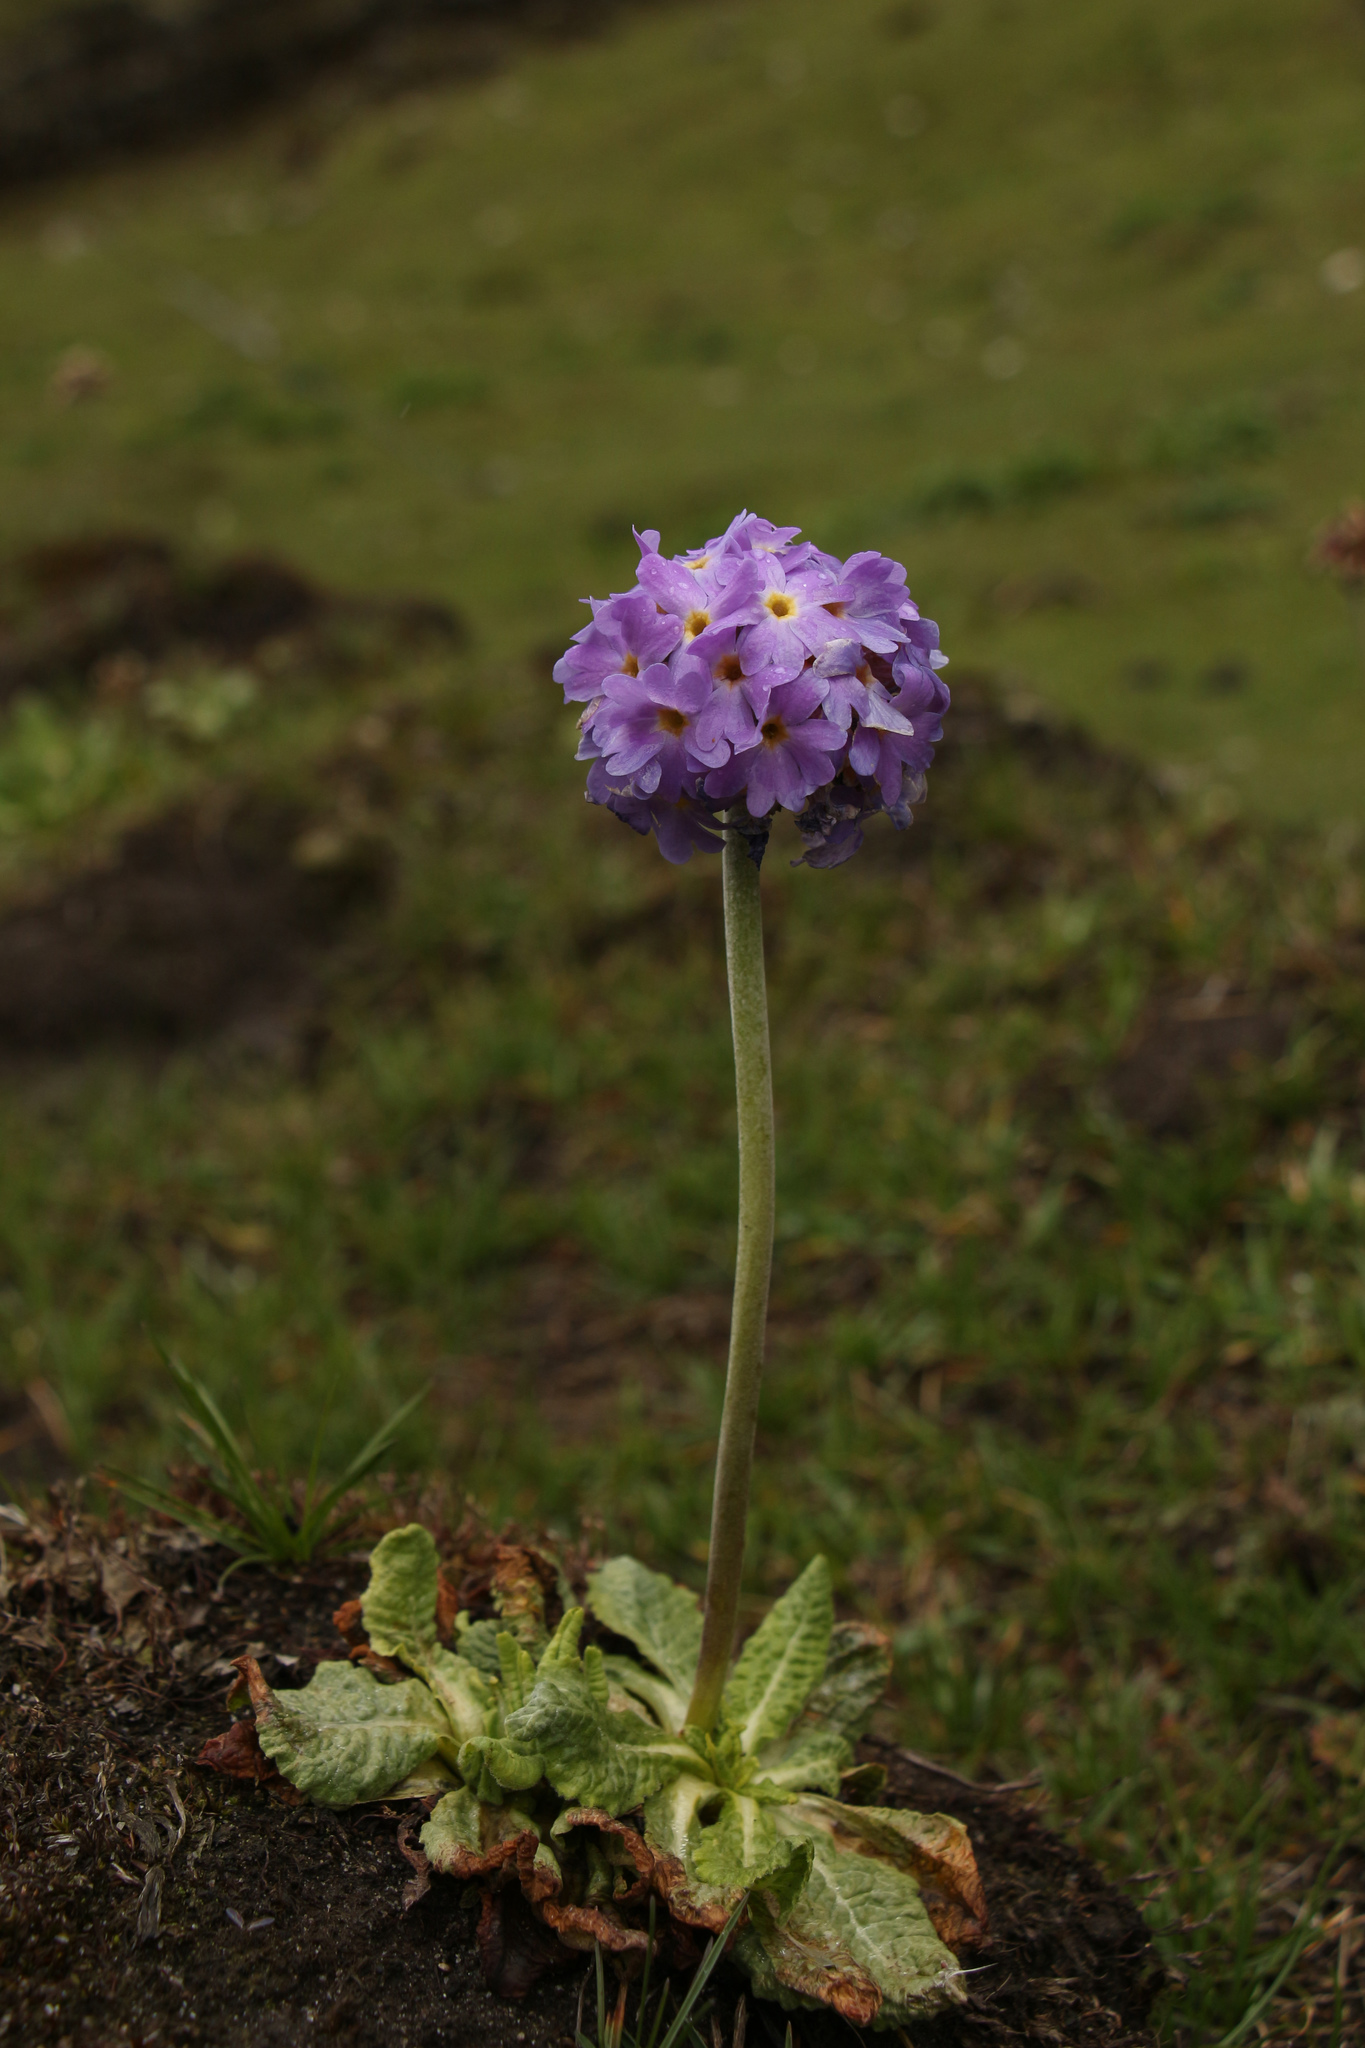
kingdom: Plantae
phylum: Tracheophyta
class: Magnoliopsida
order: Ericales
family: Primulaceae
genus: Primula
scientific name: Primula denticulata
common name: Drumstick primula
